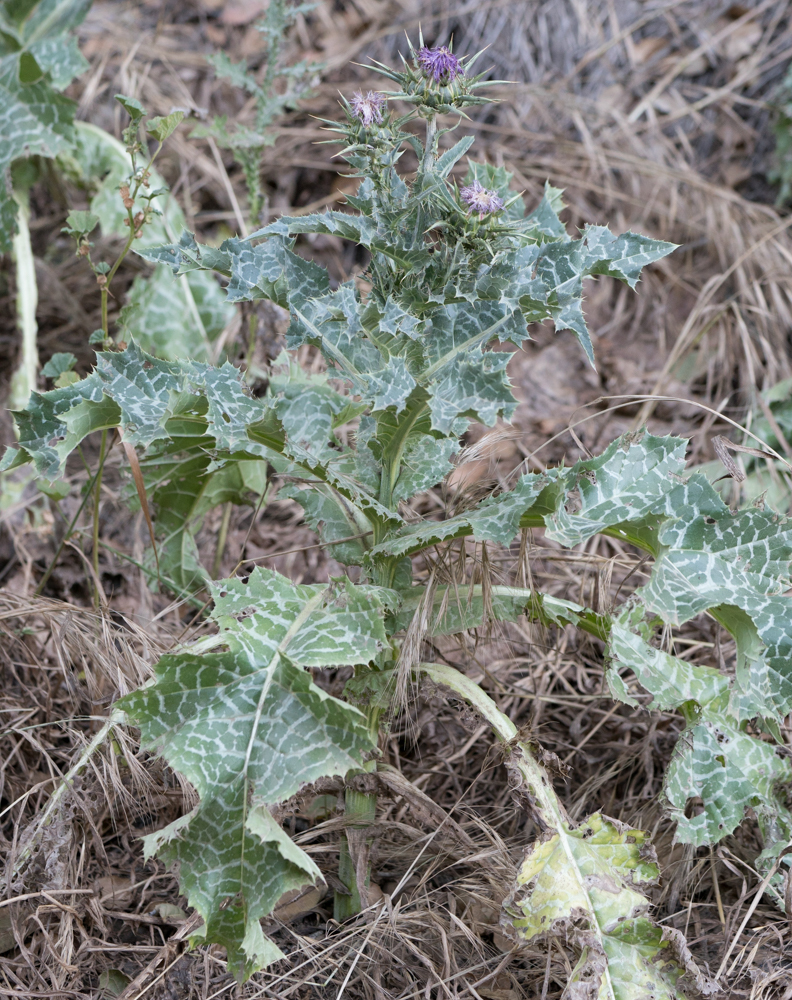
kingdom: Plantae
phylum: Tracheophyta
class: Magnoliopsida
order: Asterales
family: Asteraceae
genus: Silybum
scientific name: Silybum marianum
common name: Milk thistle
